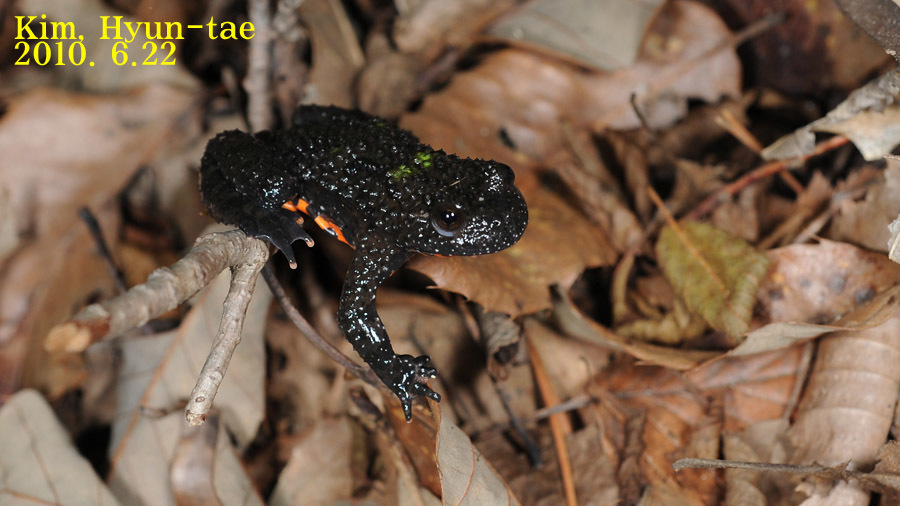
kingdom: Animalia
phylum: Chordata
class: Amphibia
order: Anura
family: Bombinatoridae
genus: Bombina
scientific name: Bombina orientalis
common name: Oriental firebelly toad
